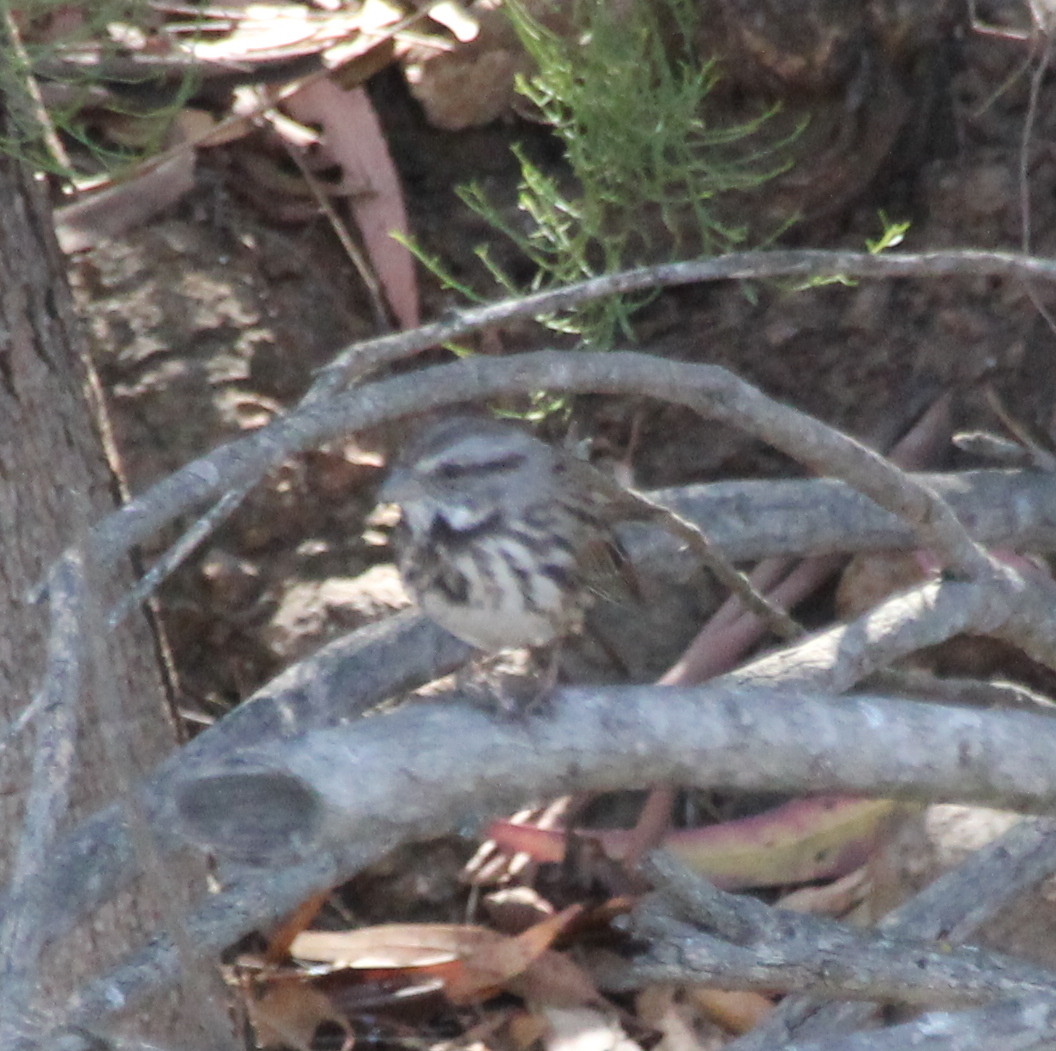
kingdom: Animalia
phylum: Chordata
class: Aves
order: Passeriformes
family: Passerellidae
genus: Melospiza
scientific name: Melospiza melodia
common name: Song sparrow
